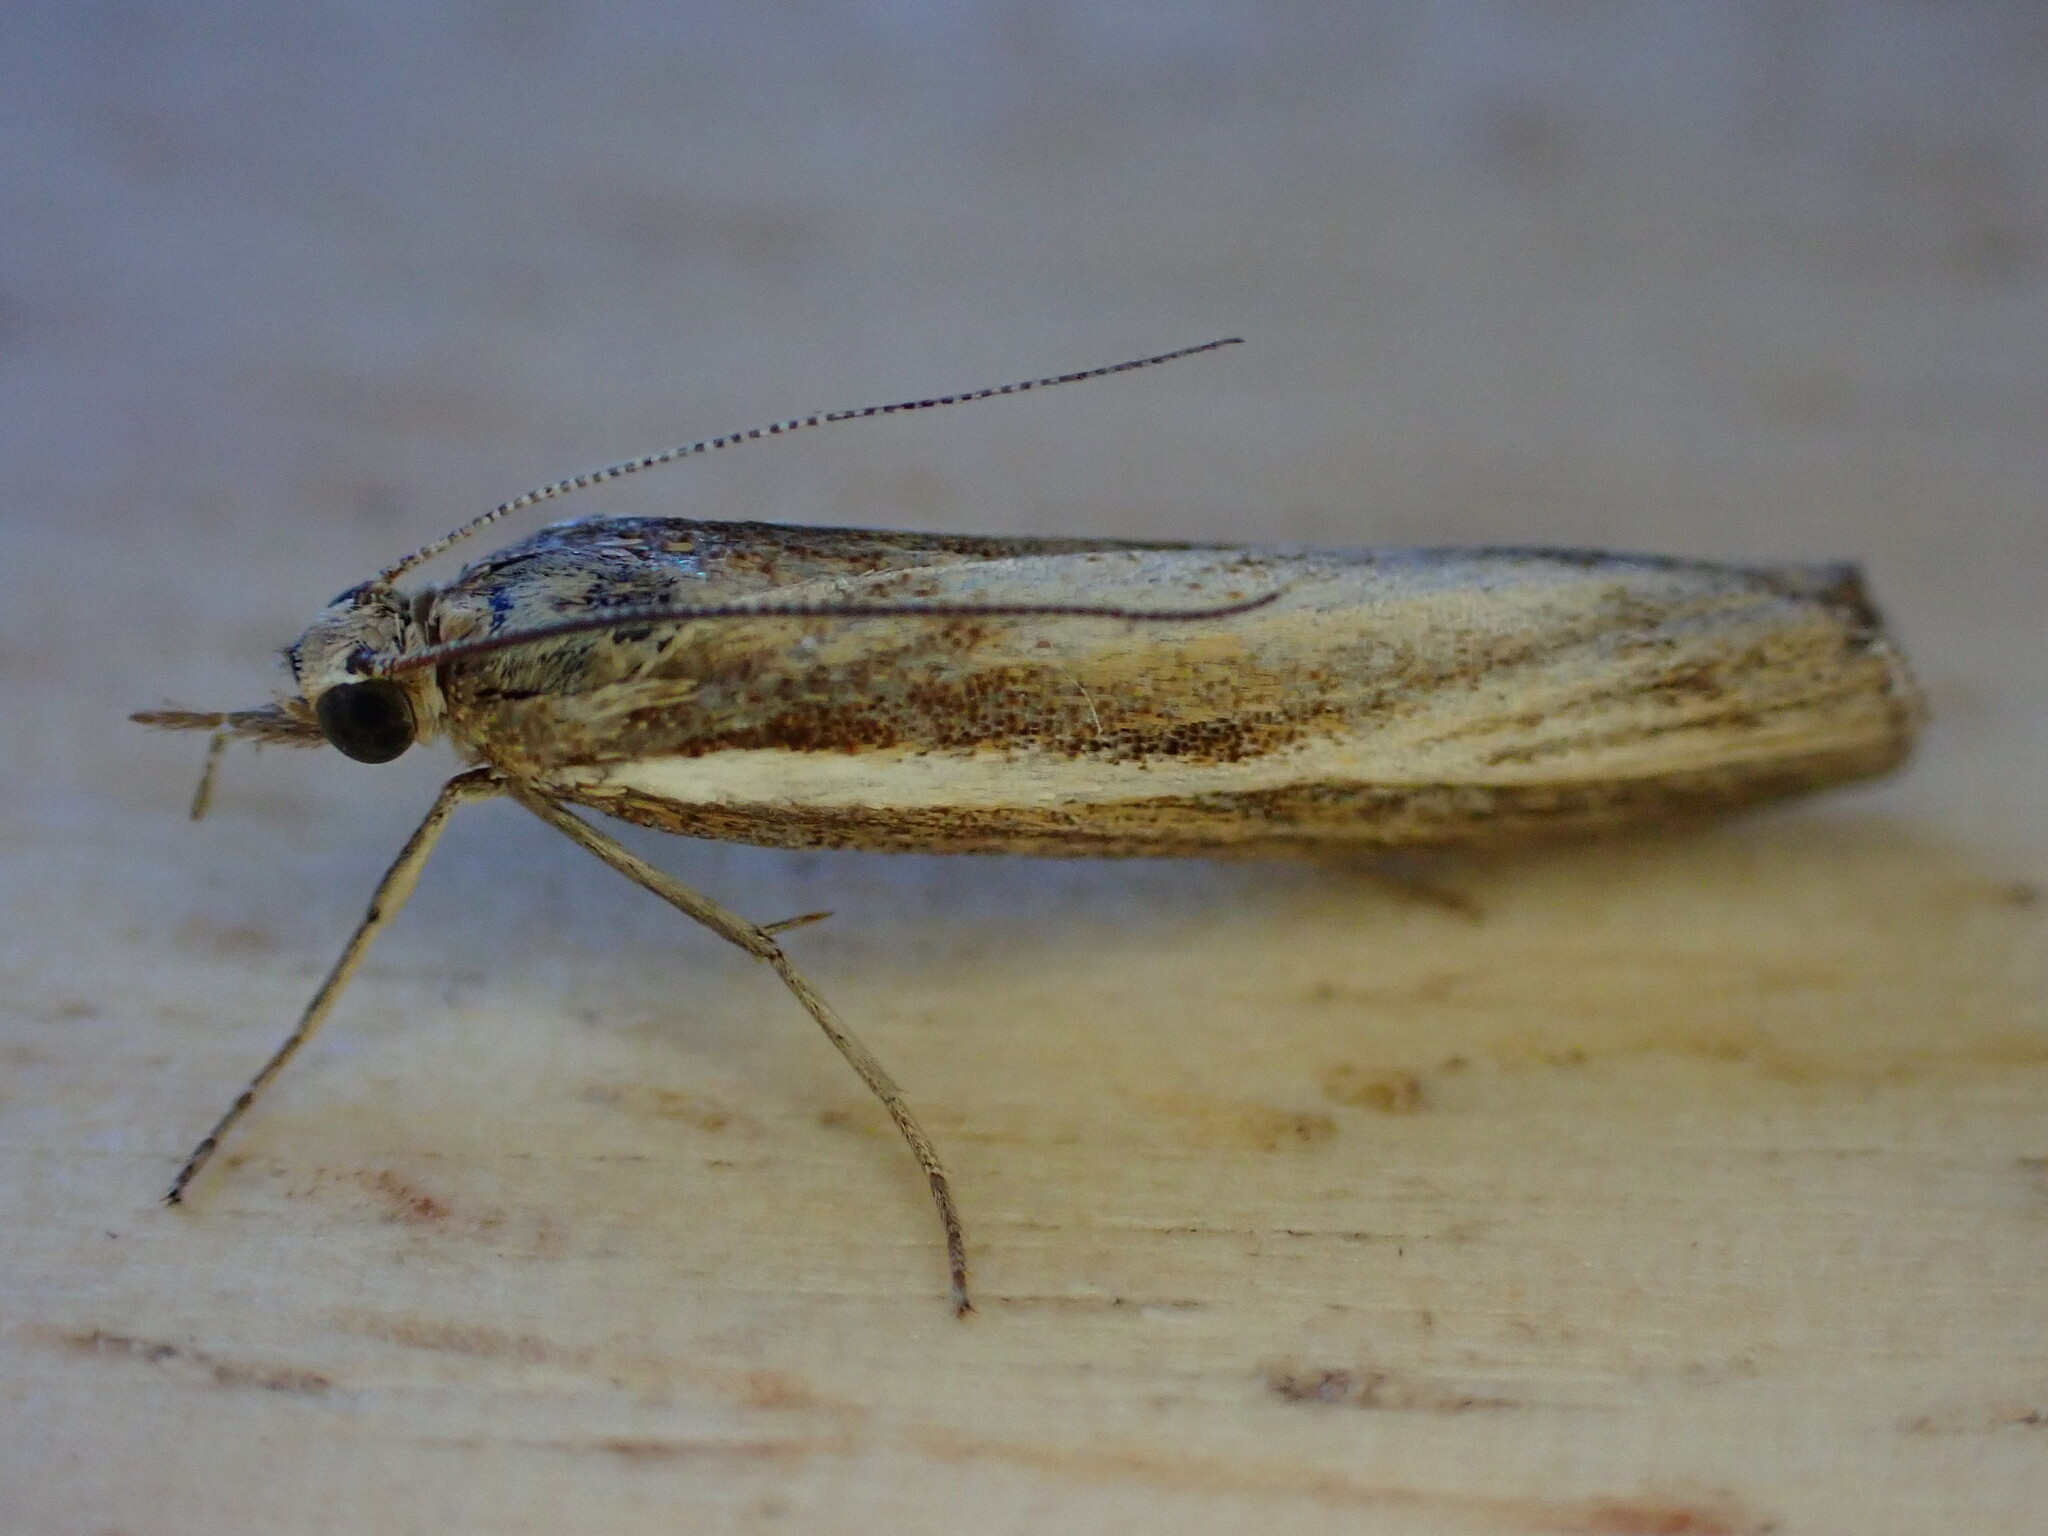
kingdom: Animalia
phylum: Arthropoda
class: Insecta
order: Lepidoptera
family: Crambidae
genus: Agriphila
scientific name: Agriphila tristellus
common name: Common grass-veneer
